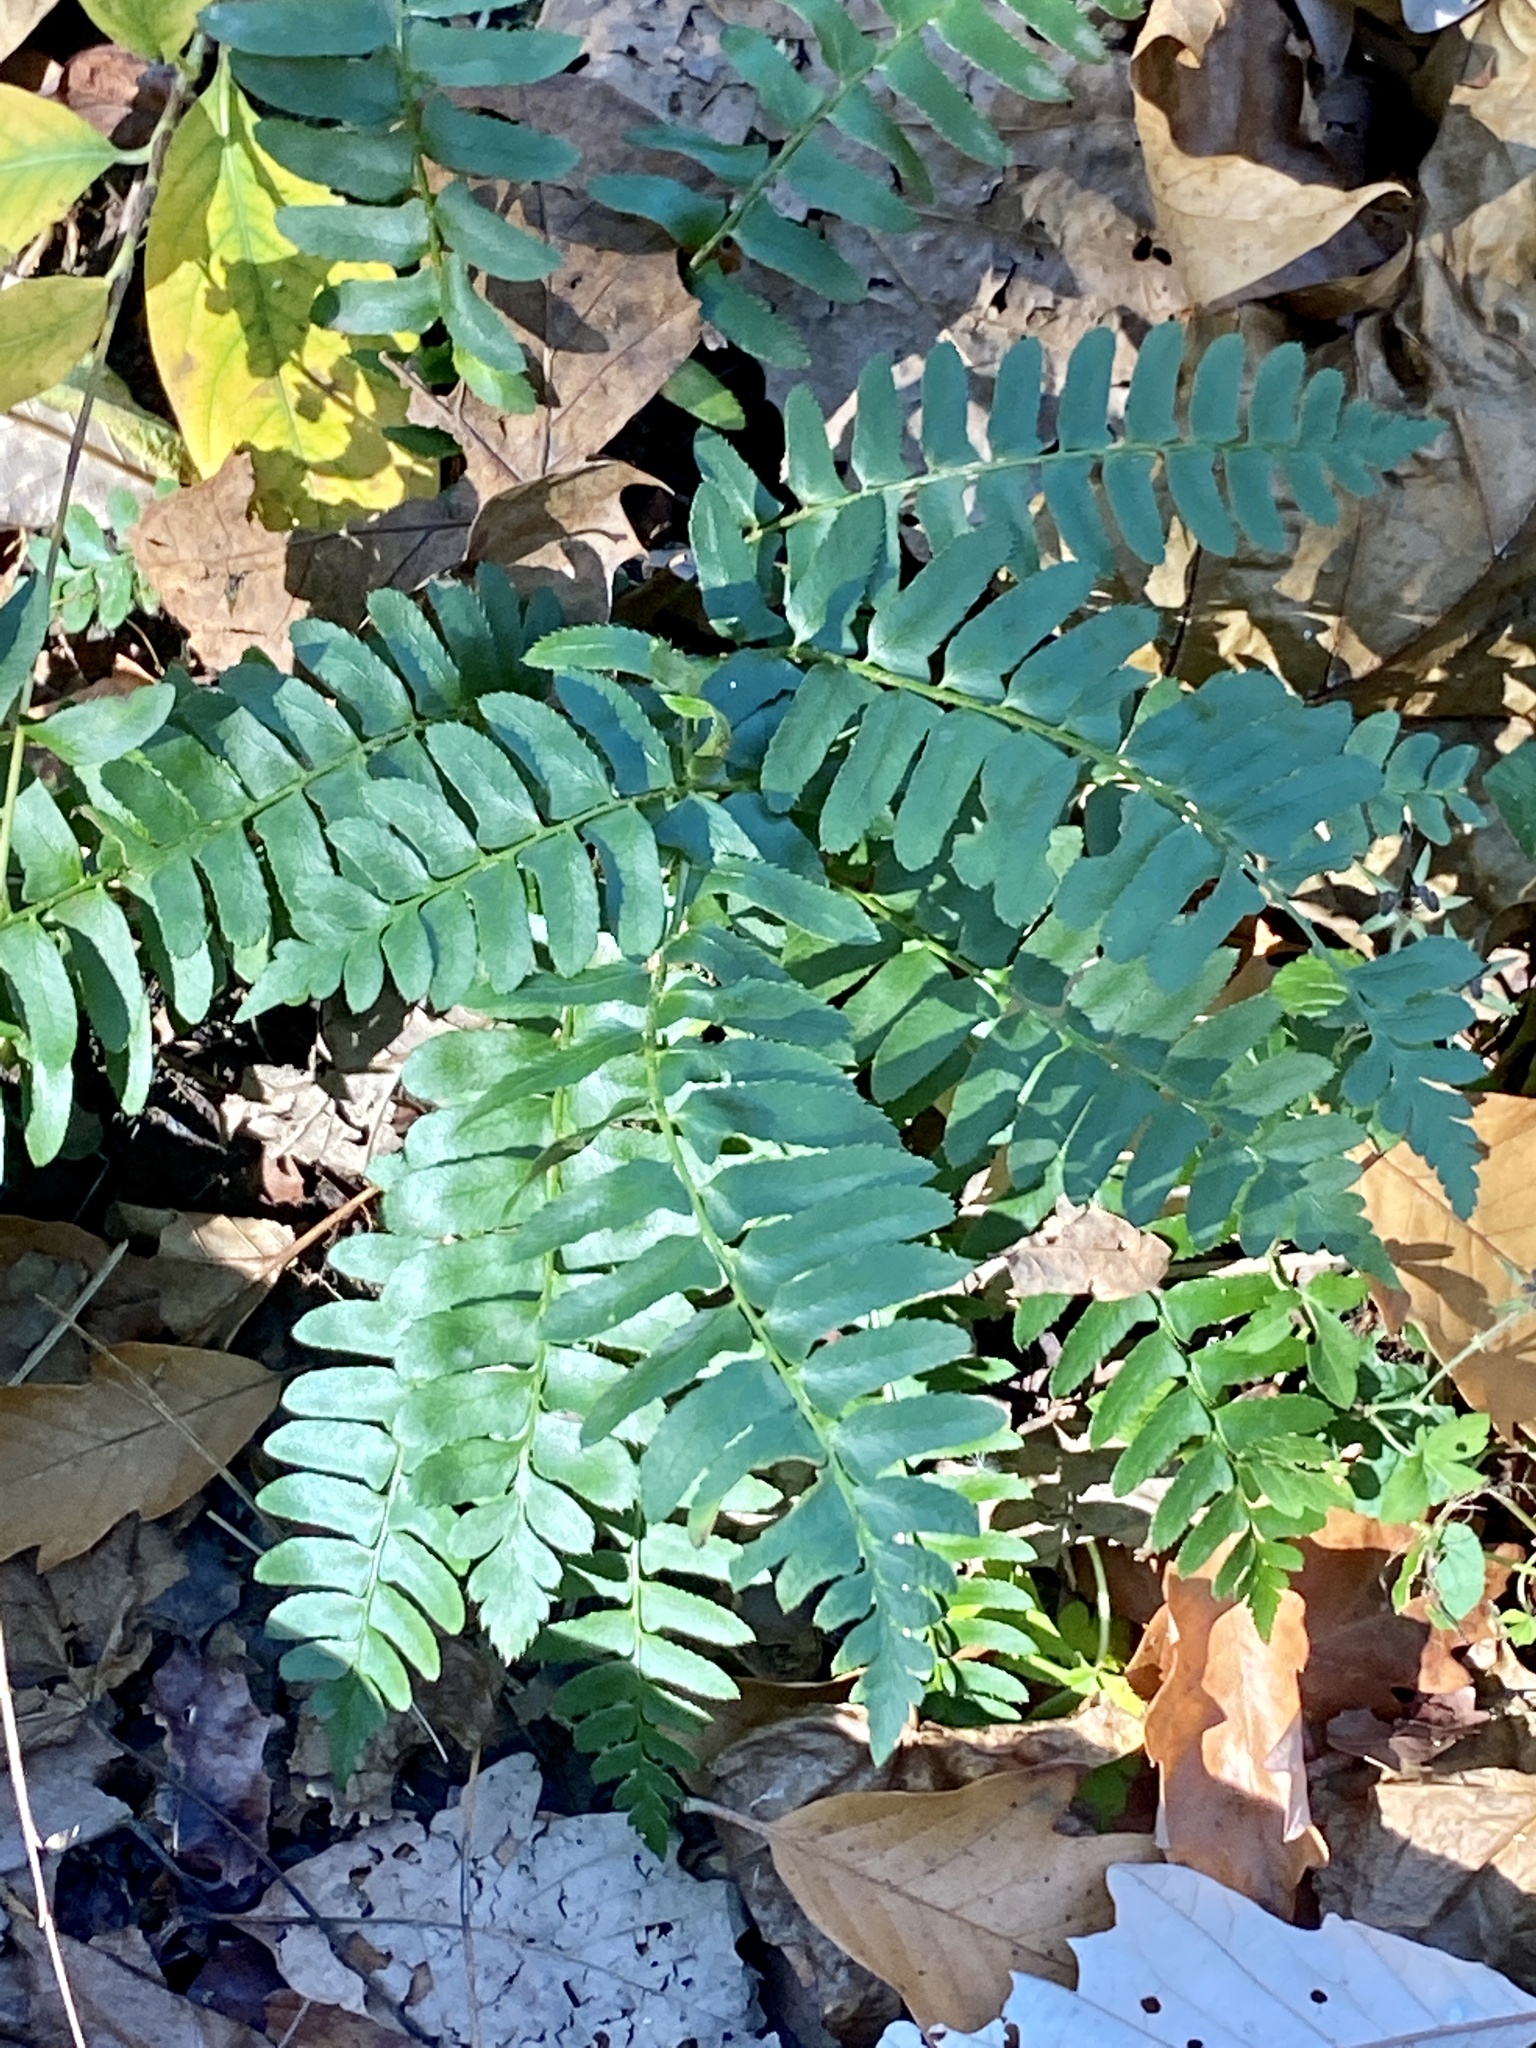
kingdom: Plantae
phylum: Tracheophyta
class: Polypodiopsida
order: Polypodiales
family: Dryopteridaceae
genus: Polystichum
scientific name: Polystichum acrostichoides
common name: Christmas fern
